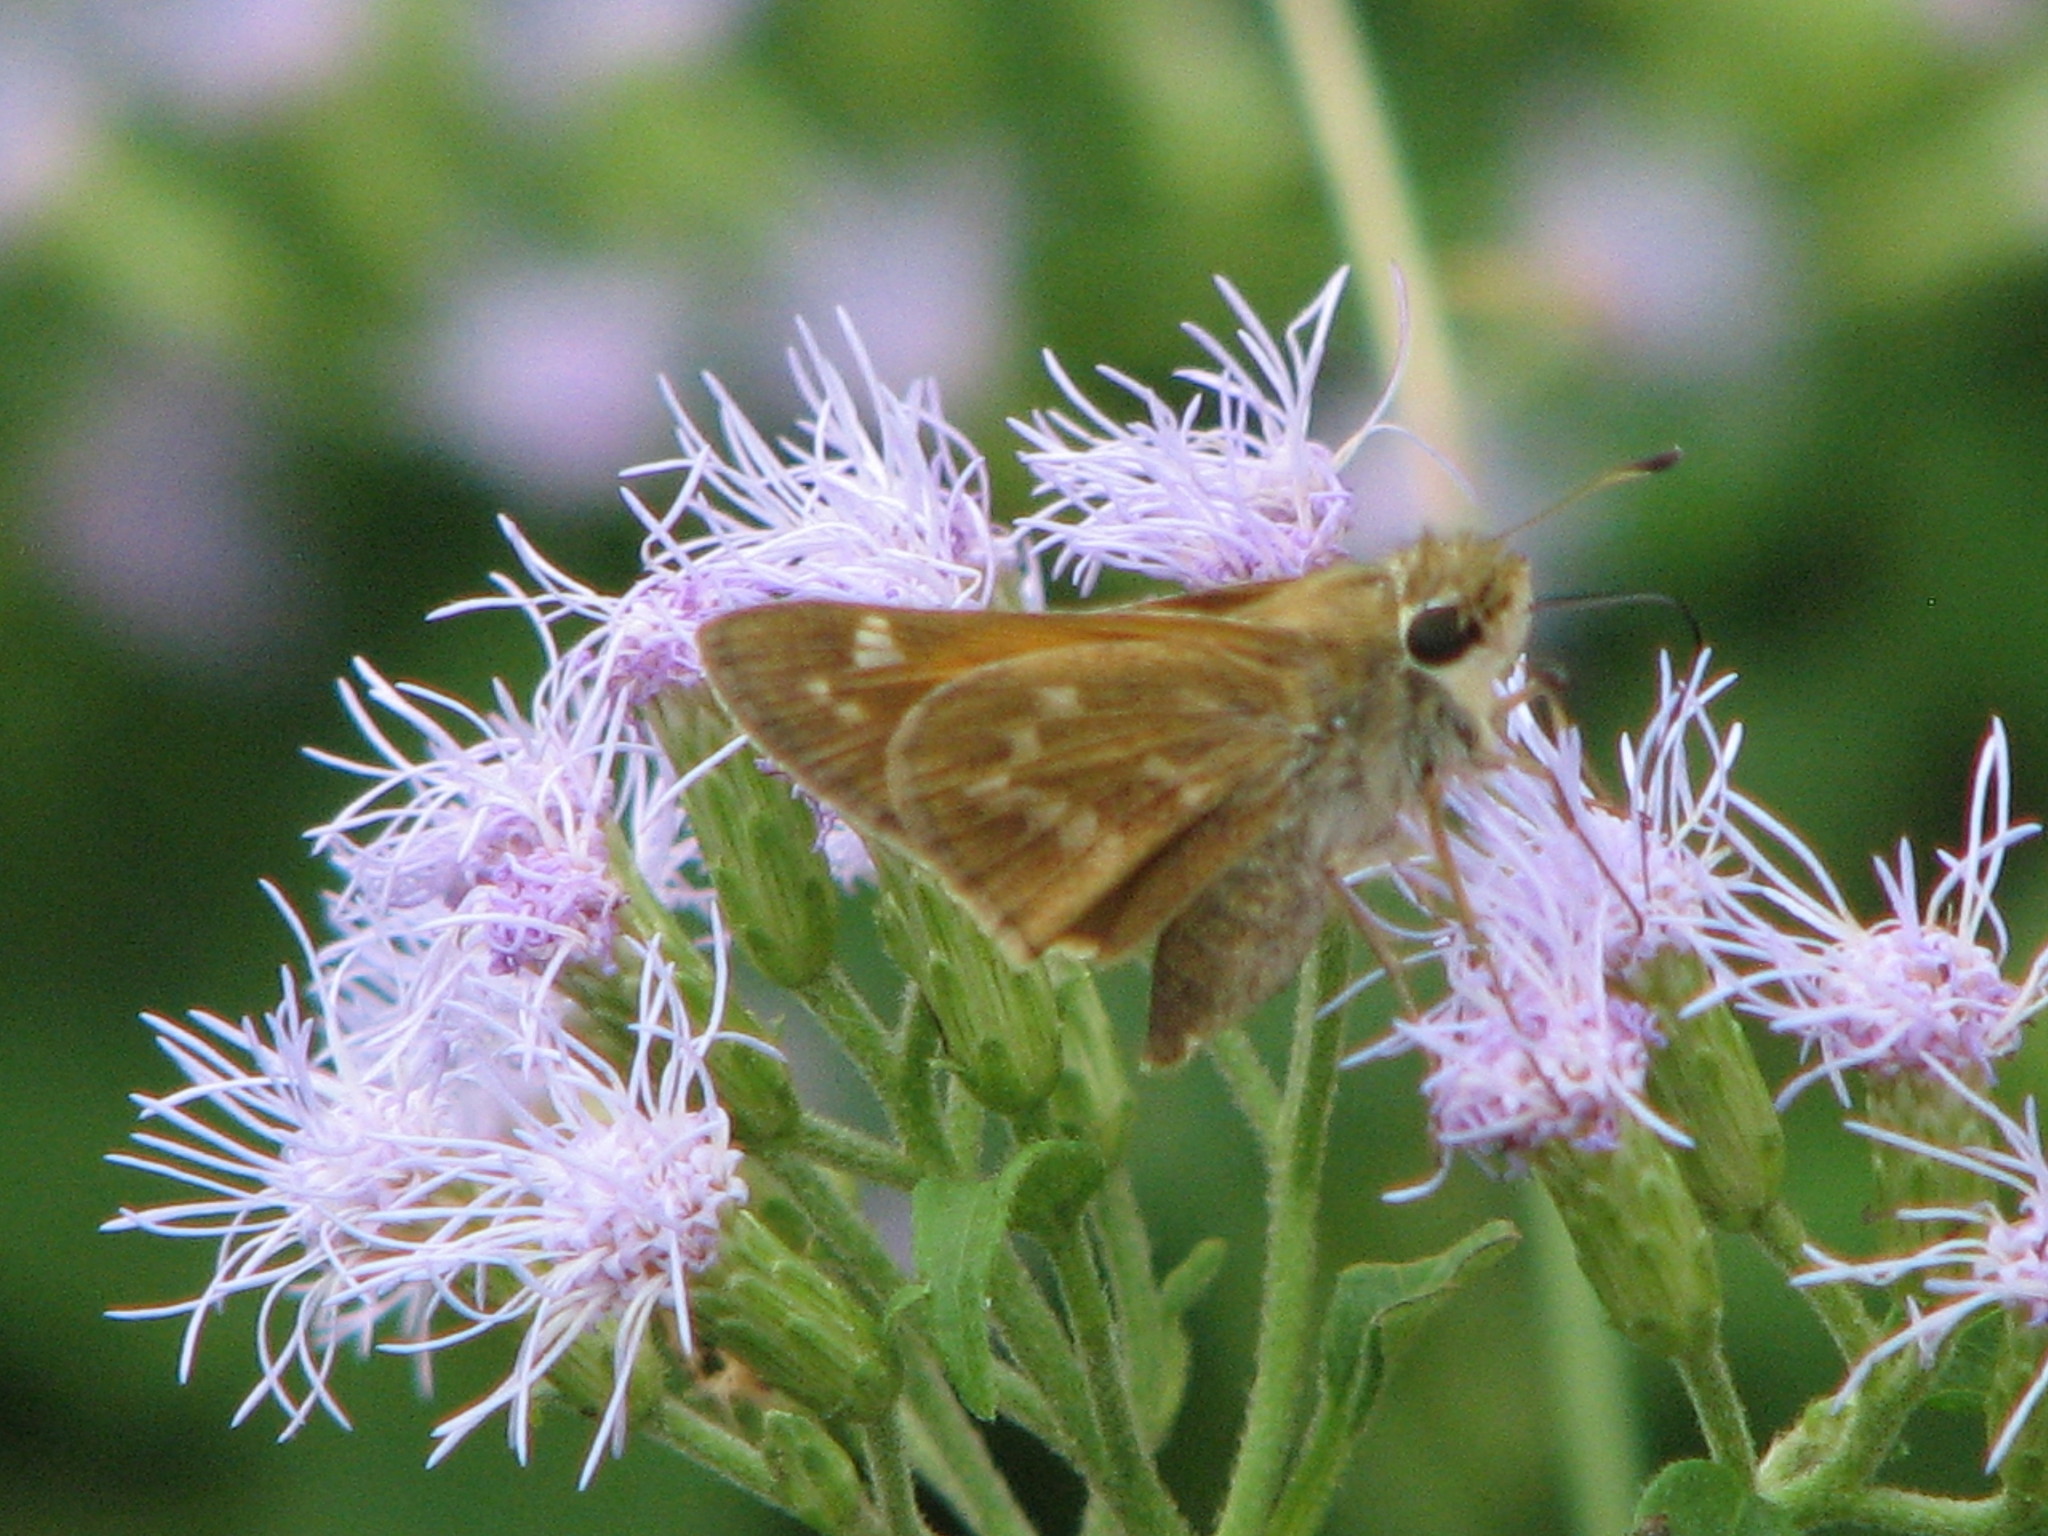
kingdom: Animalia
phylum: Arthropoda
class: Insecta
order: Lepidoptera
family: Hesperiidae
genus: Atalopedes
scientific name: Atalopedes
